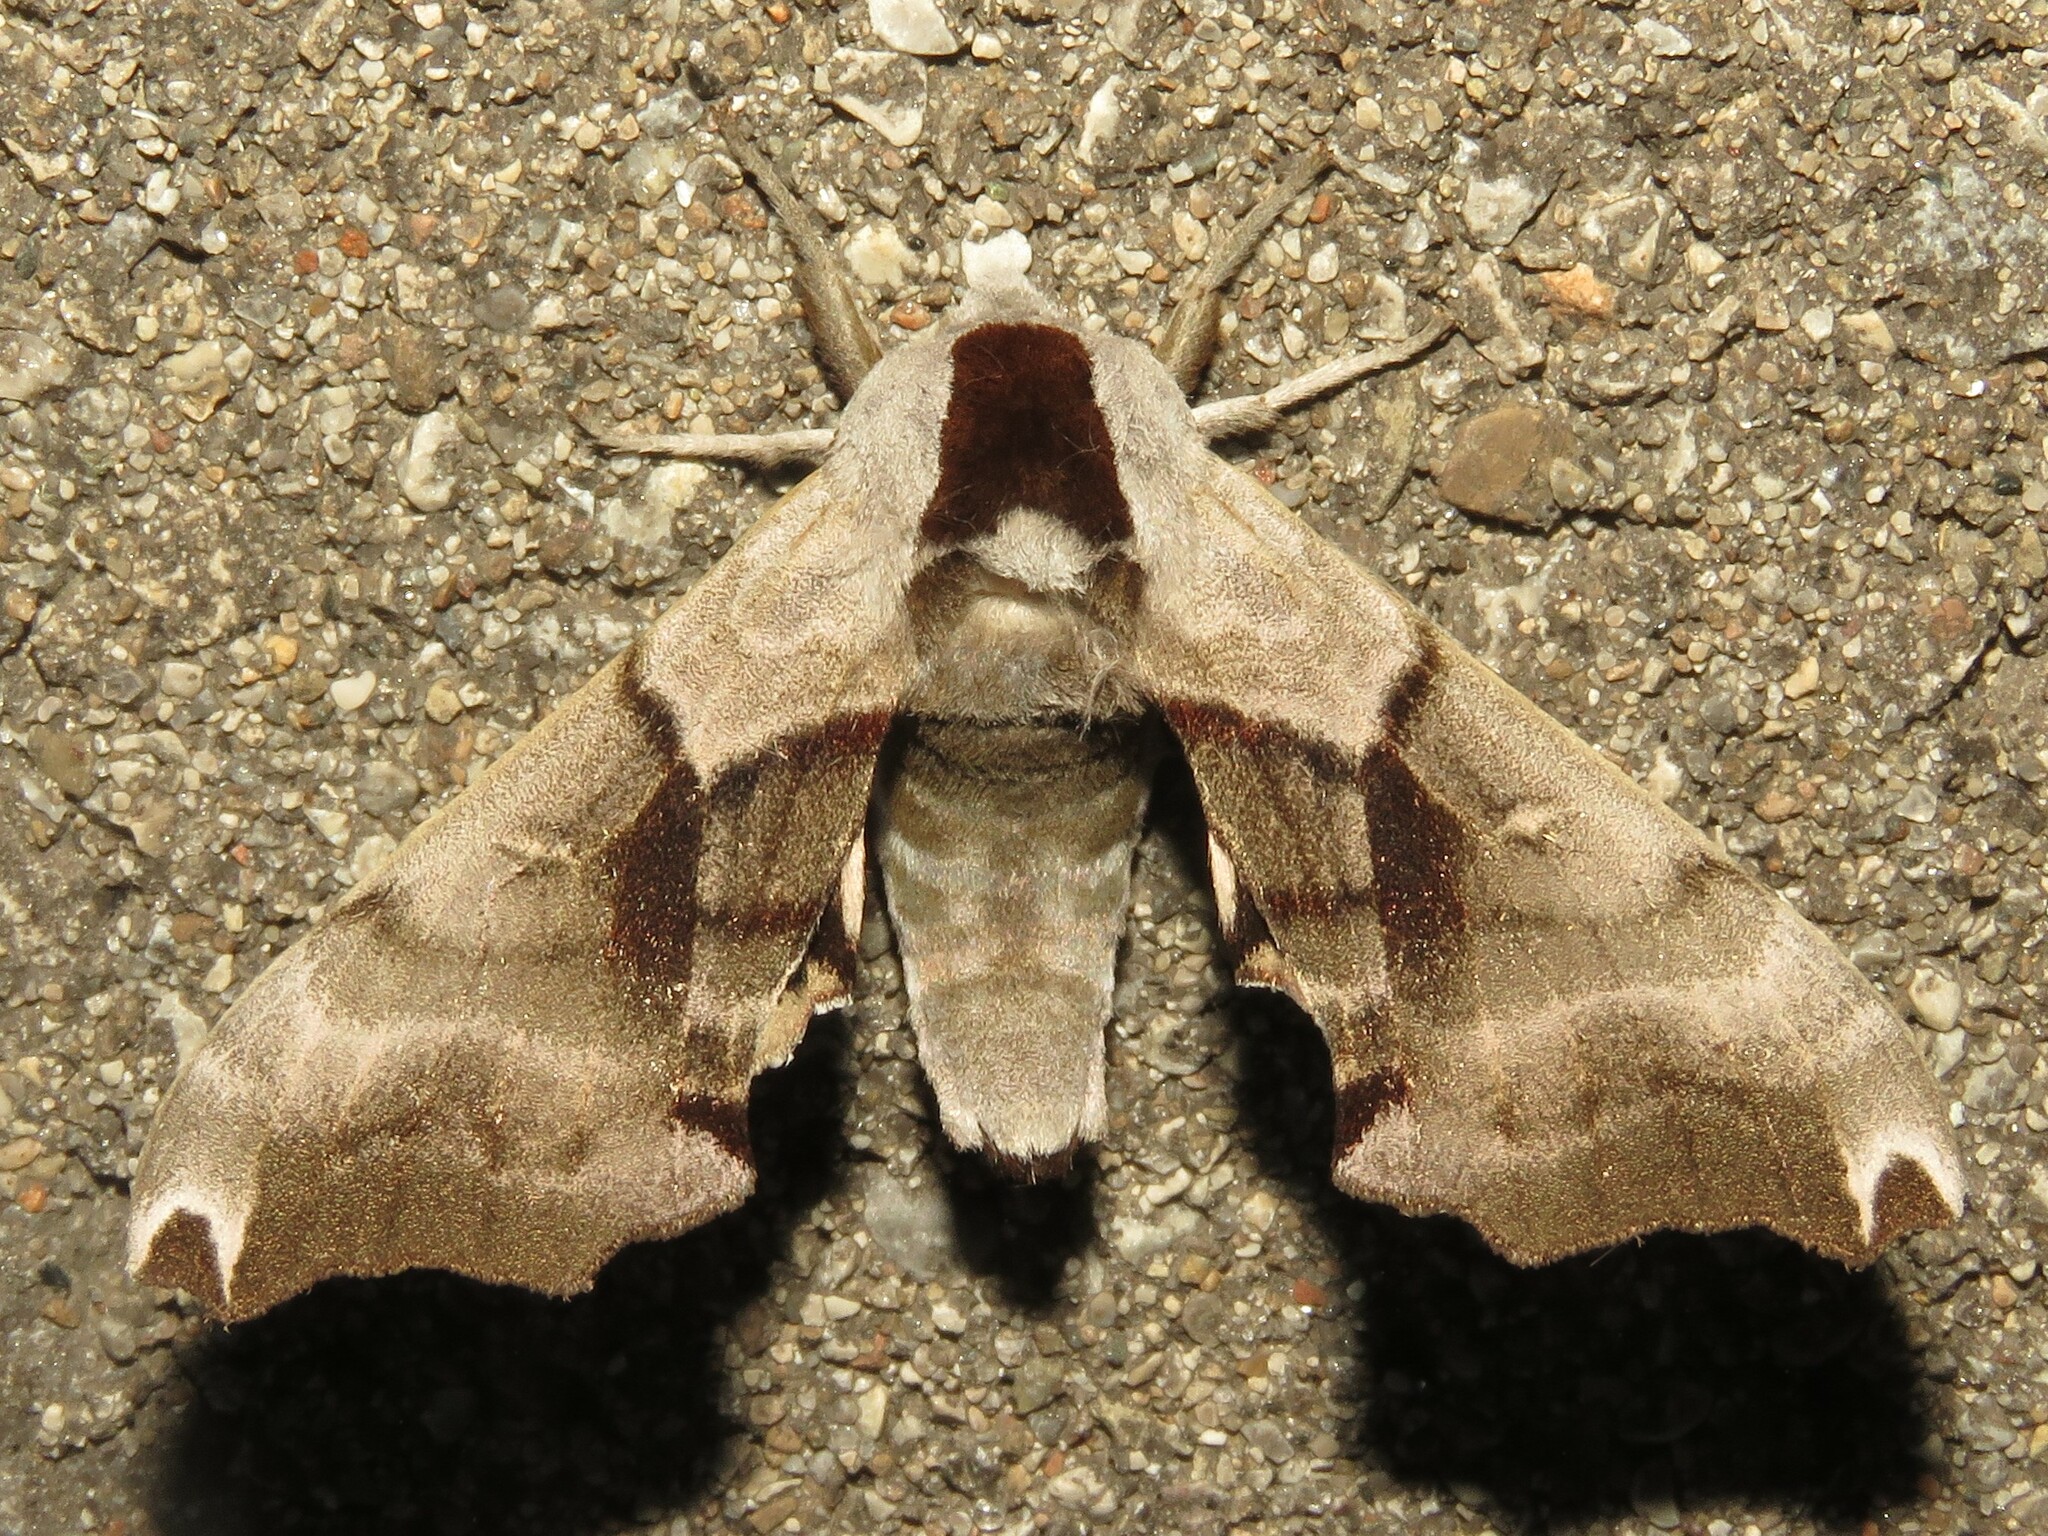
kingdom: Animalia
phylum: Arthropoda
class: Insecta
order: Lepidoptera
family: Sphingidae
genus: Smerinthus
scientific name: Smerinthus jamaicensis
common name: Twin spotted sphinx
